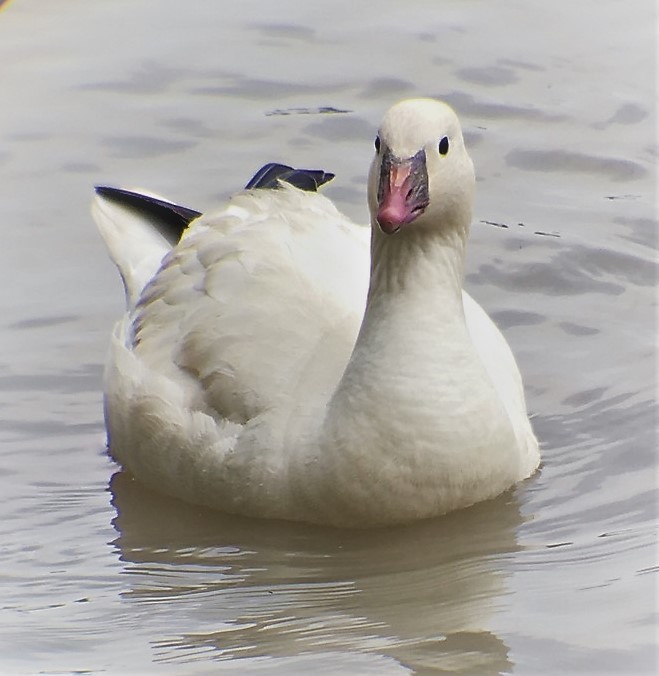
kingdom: Animalia
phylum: Chordata
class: Aves
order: Anseriformes
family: Anatidae
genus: Anser
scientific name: Anser rossii
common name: Ross's goose
